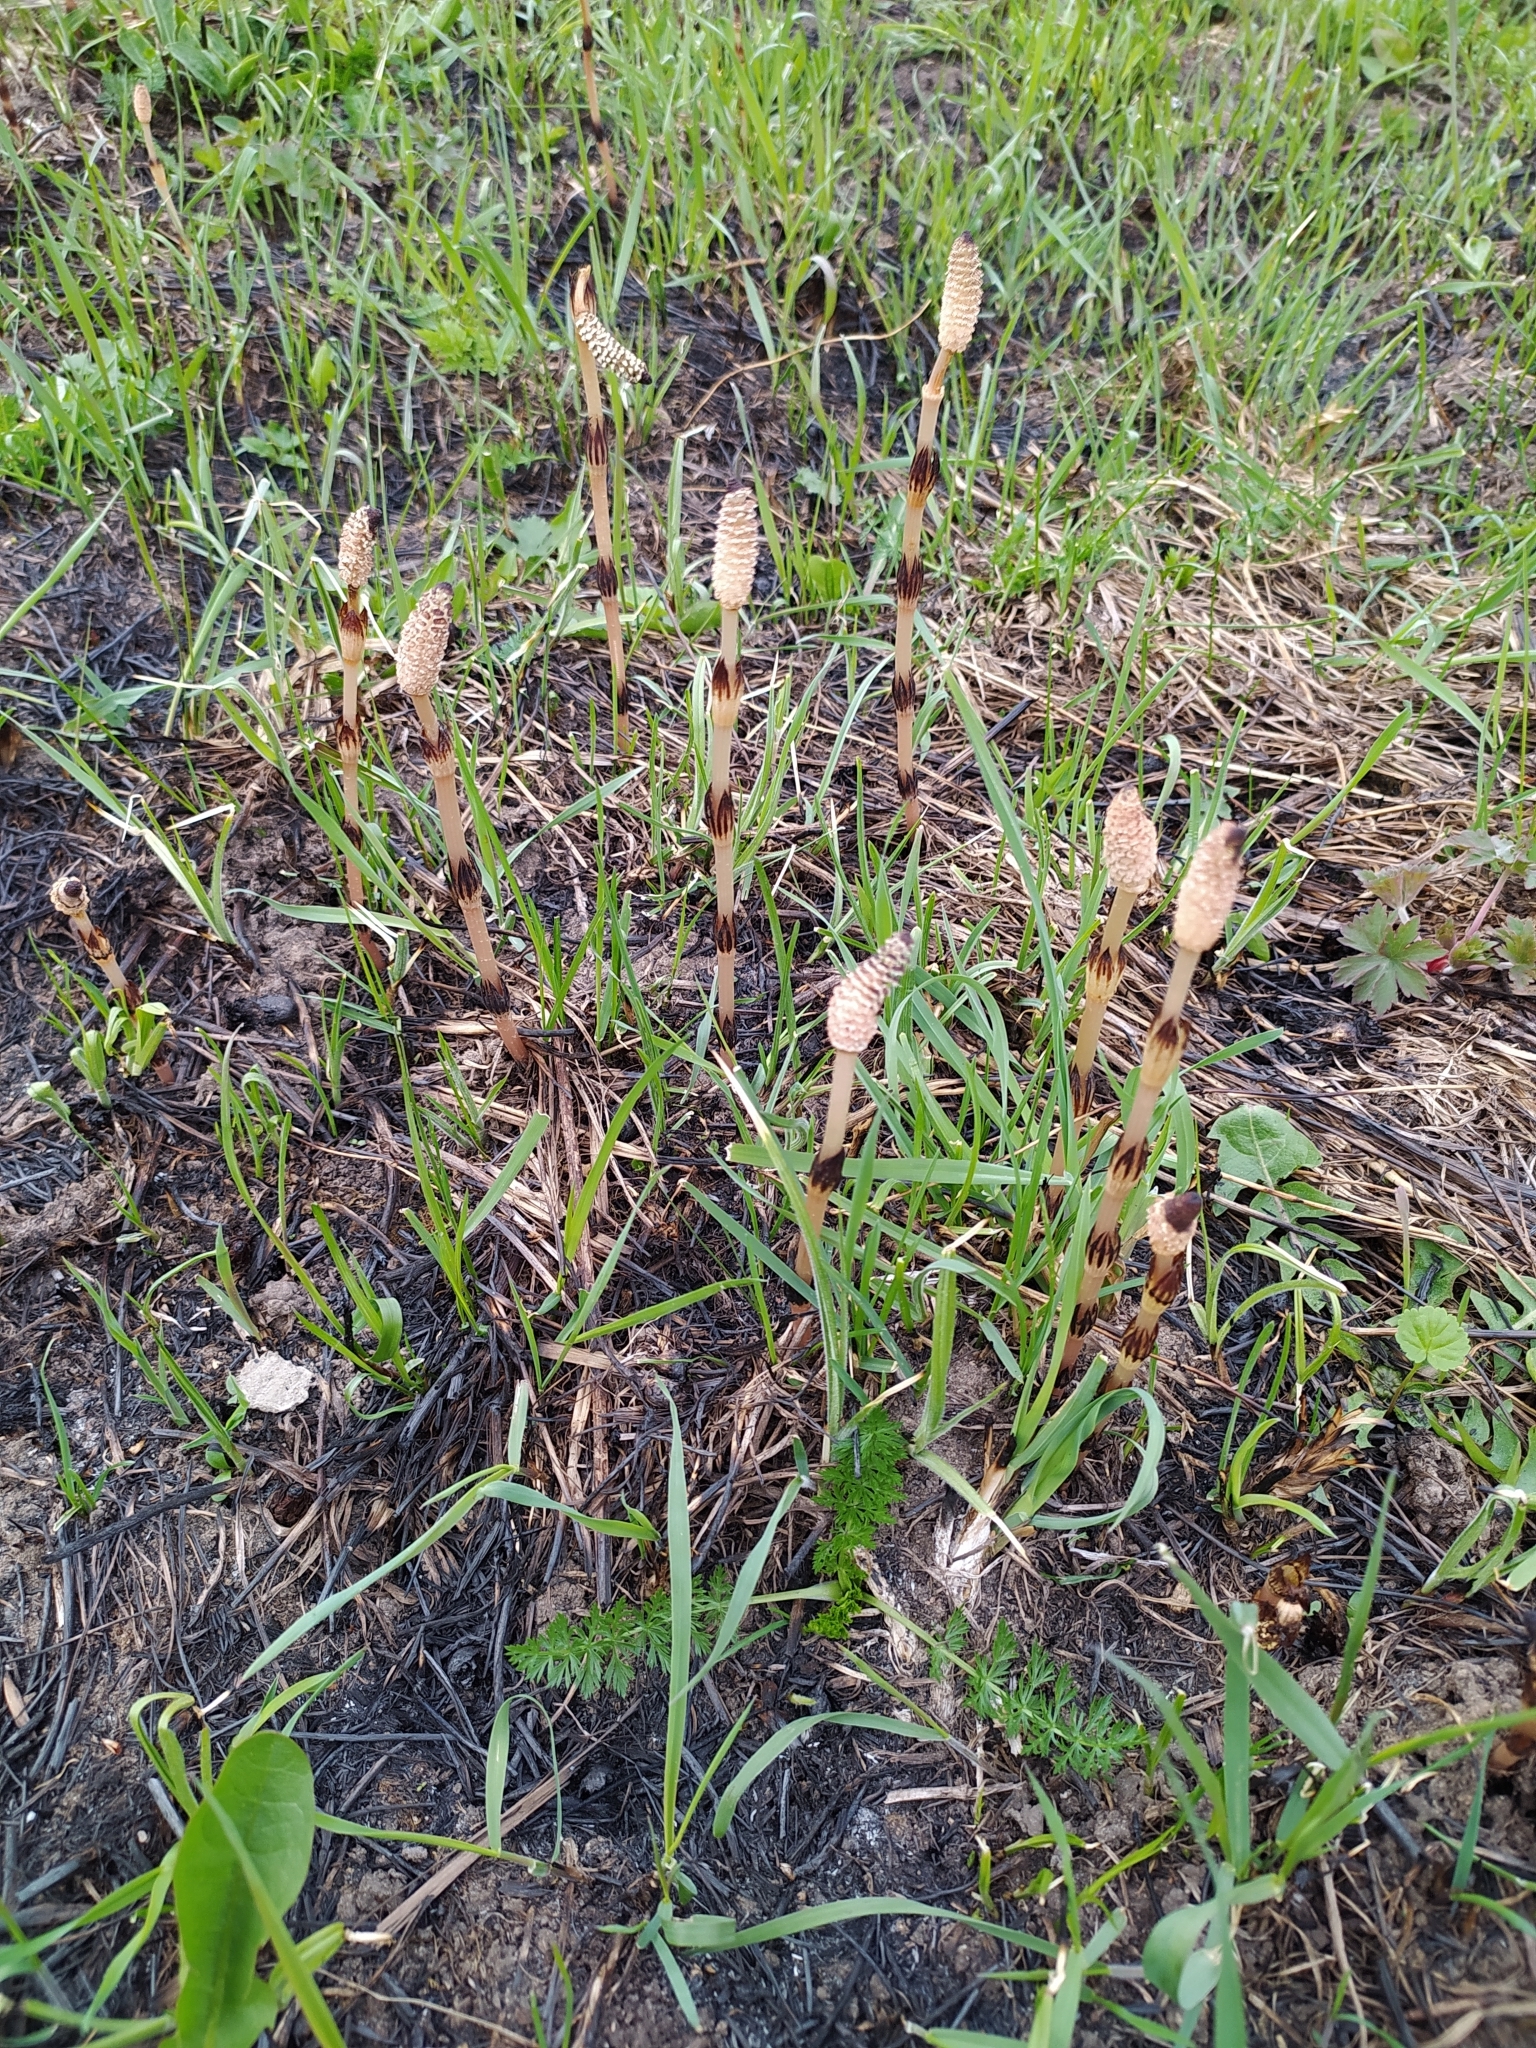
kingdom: Plantae
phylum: Tracheophyta
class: Polypodiopsida
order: Equisetales
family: Equisetaceae
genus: Equisetum
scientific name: Equisetum arvense
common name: Field horsetail
